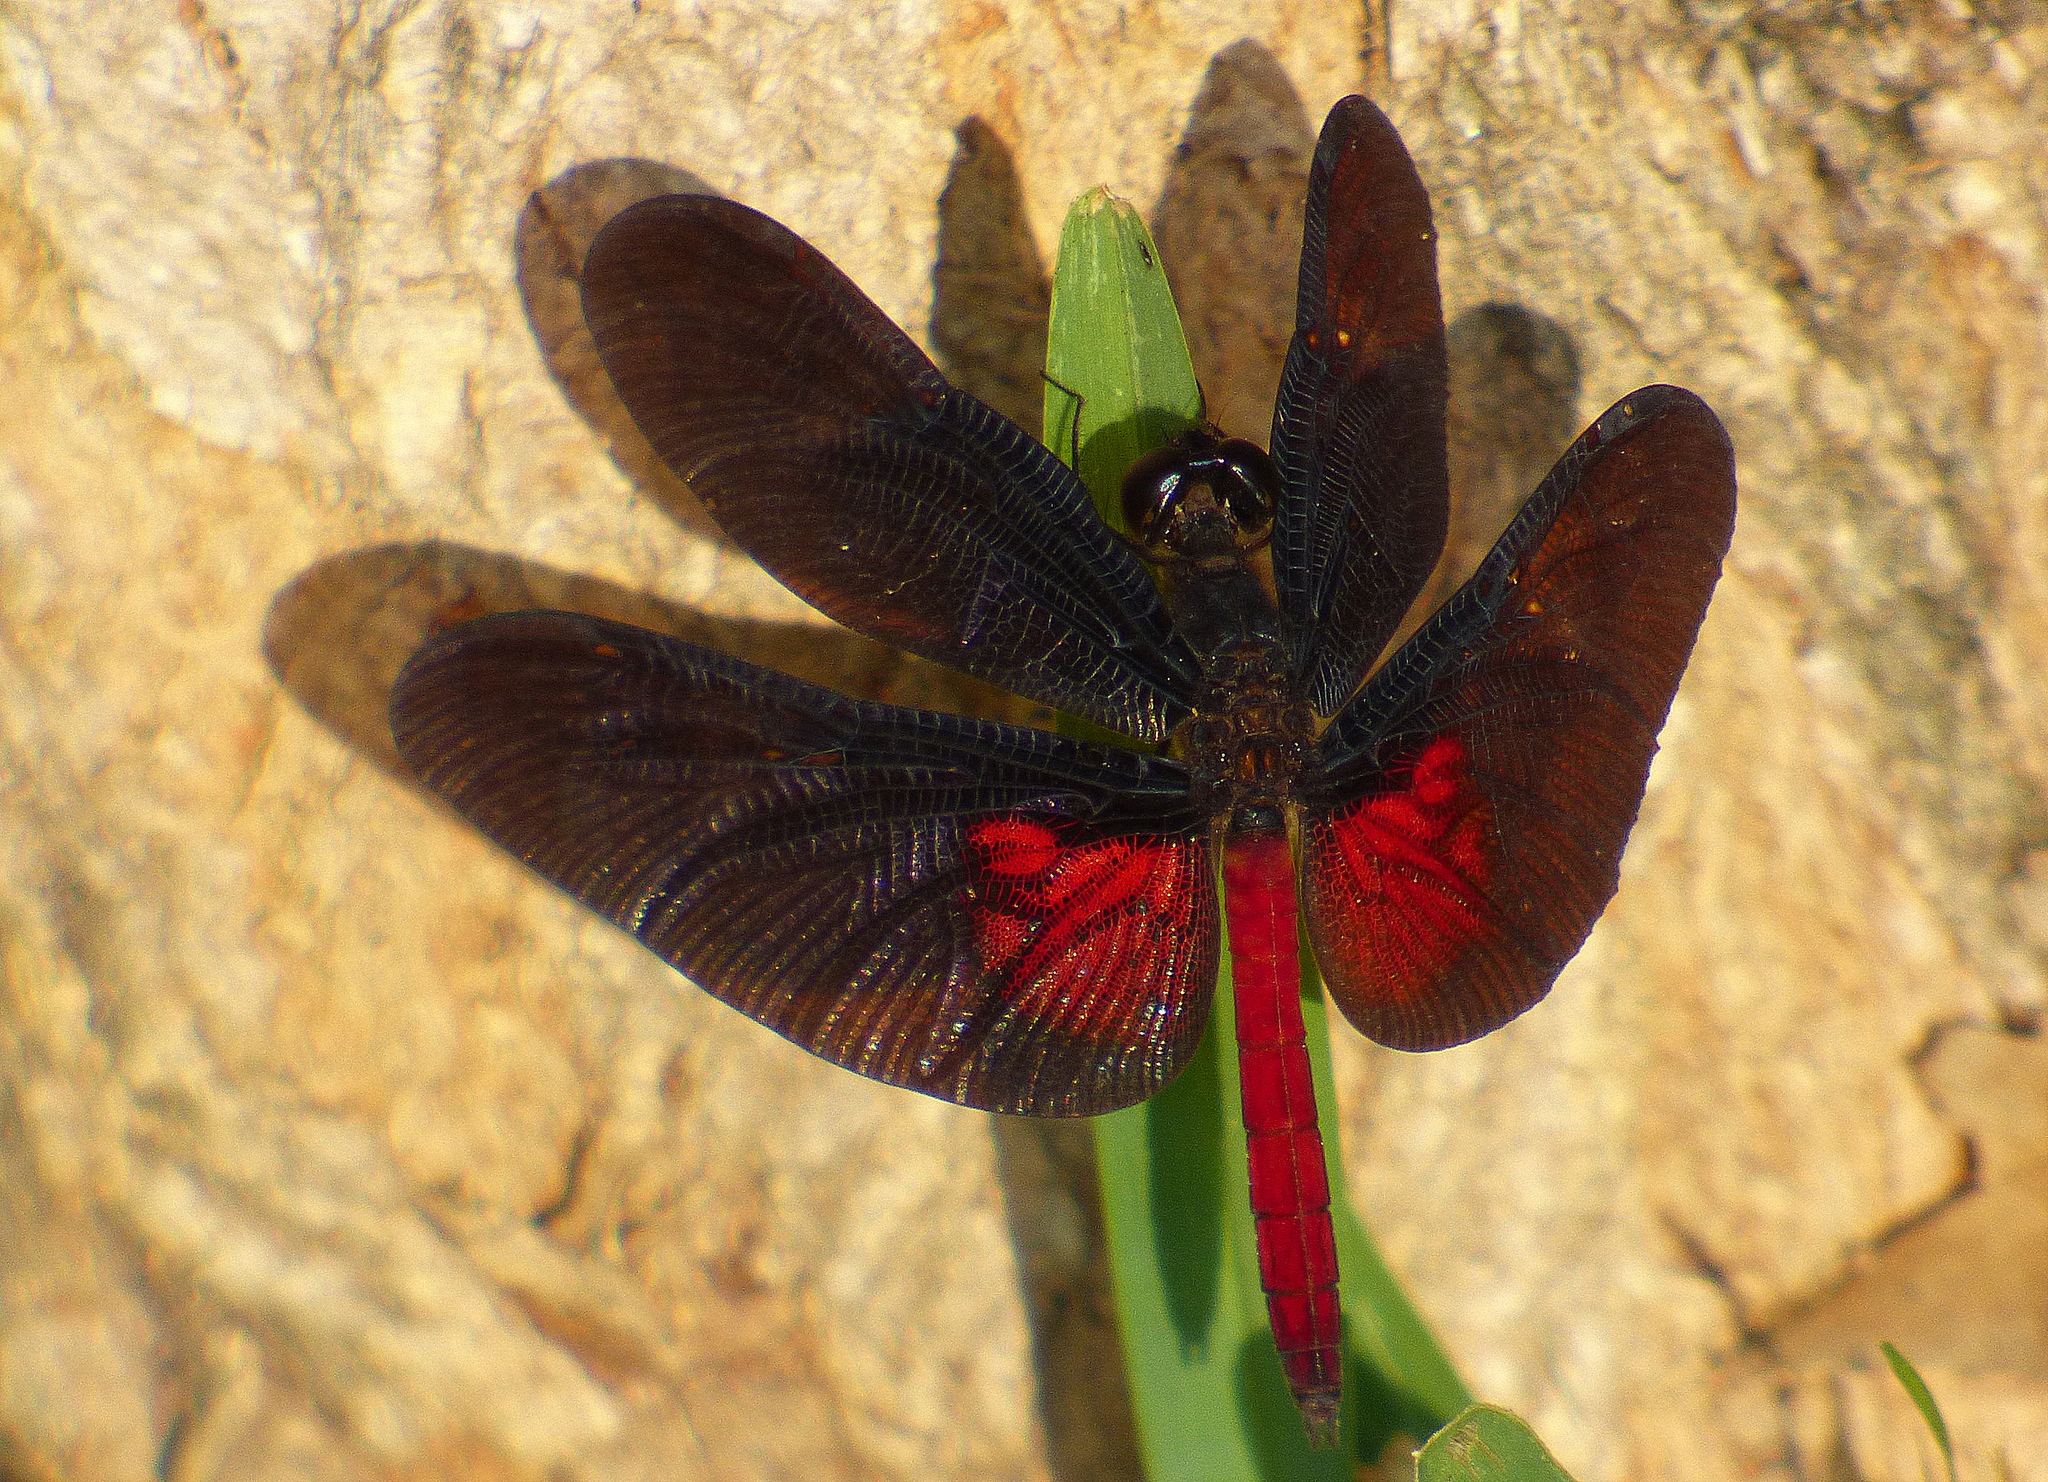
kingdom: Animalia
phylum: Arthropoda
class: Insecta
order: Odonata
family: Libellulidae
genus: Diastatops
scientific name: Diastatops pullata
